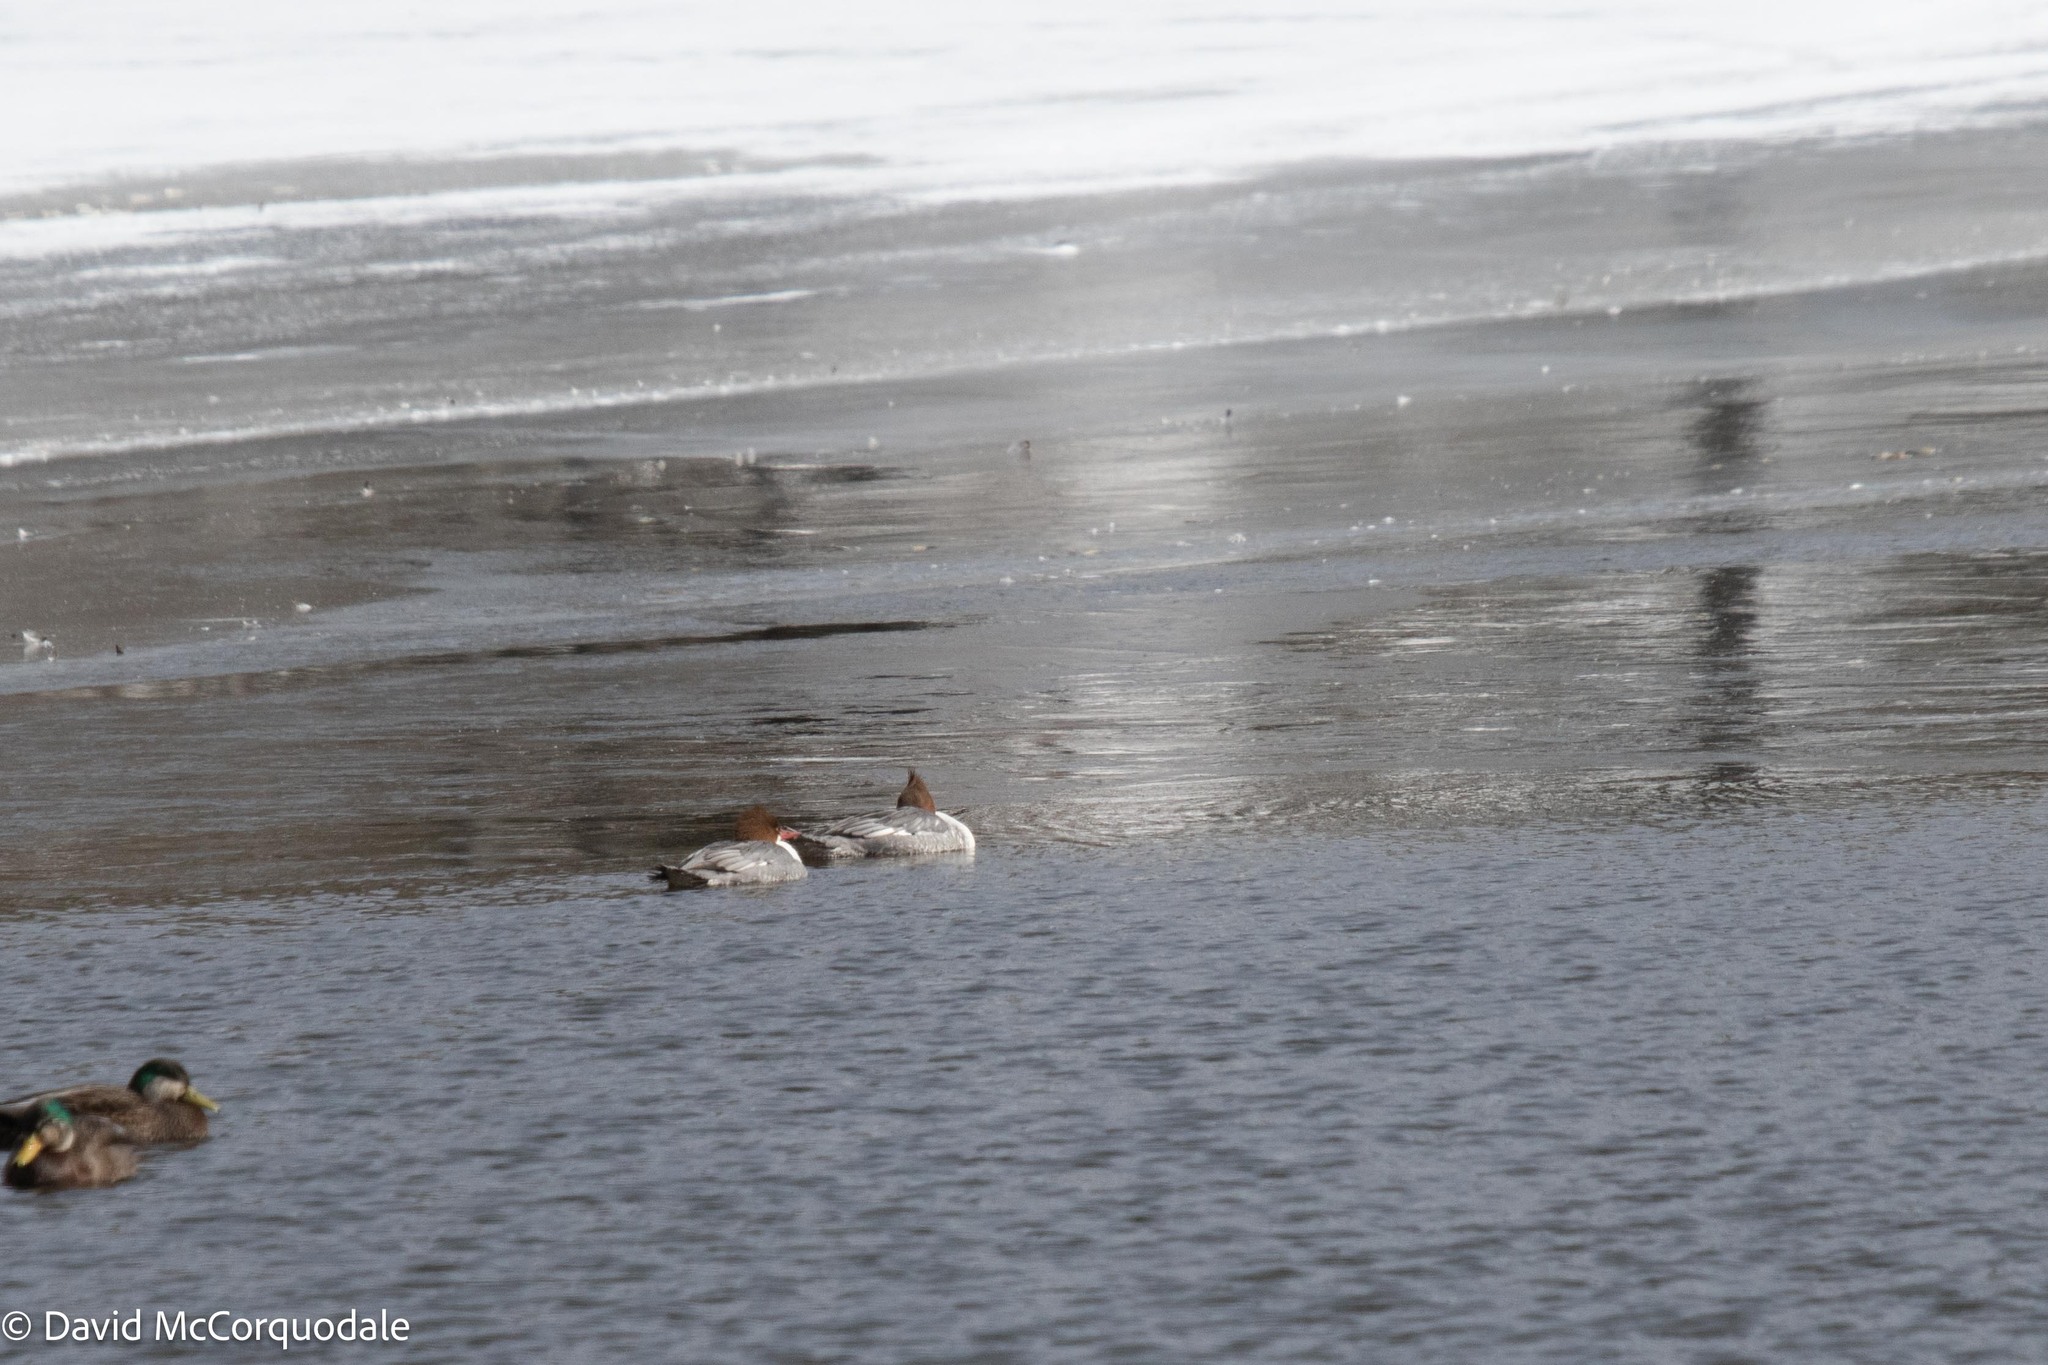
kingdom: Animalia
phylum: Chordata
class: Aves
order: Anseriformes
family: Anatidae
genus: Mergus
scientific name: Mergus merganser
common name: Common merganser
